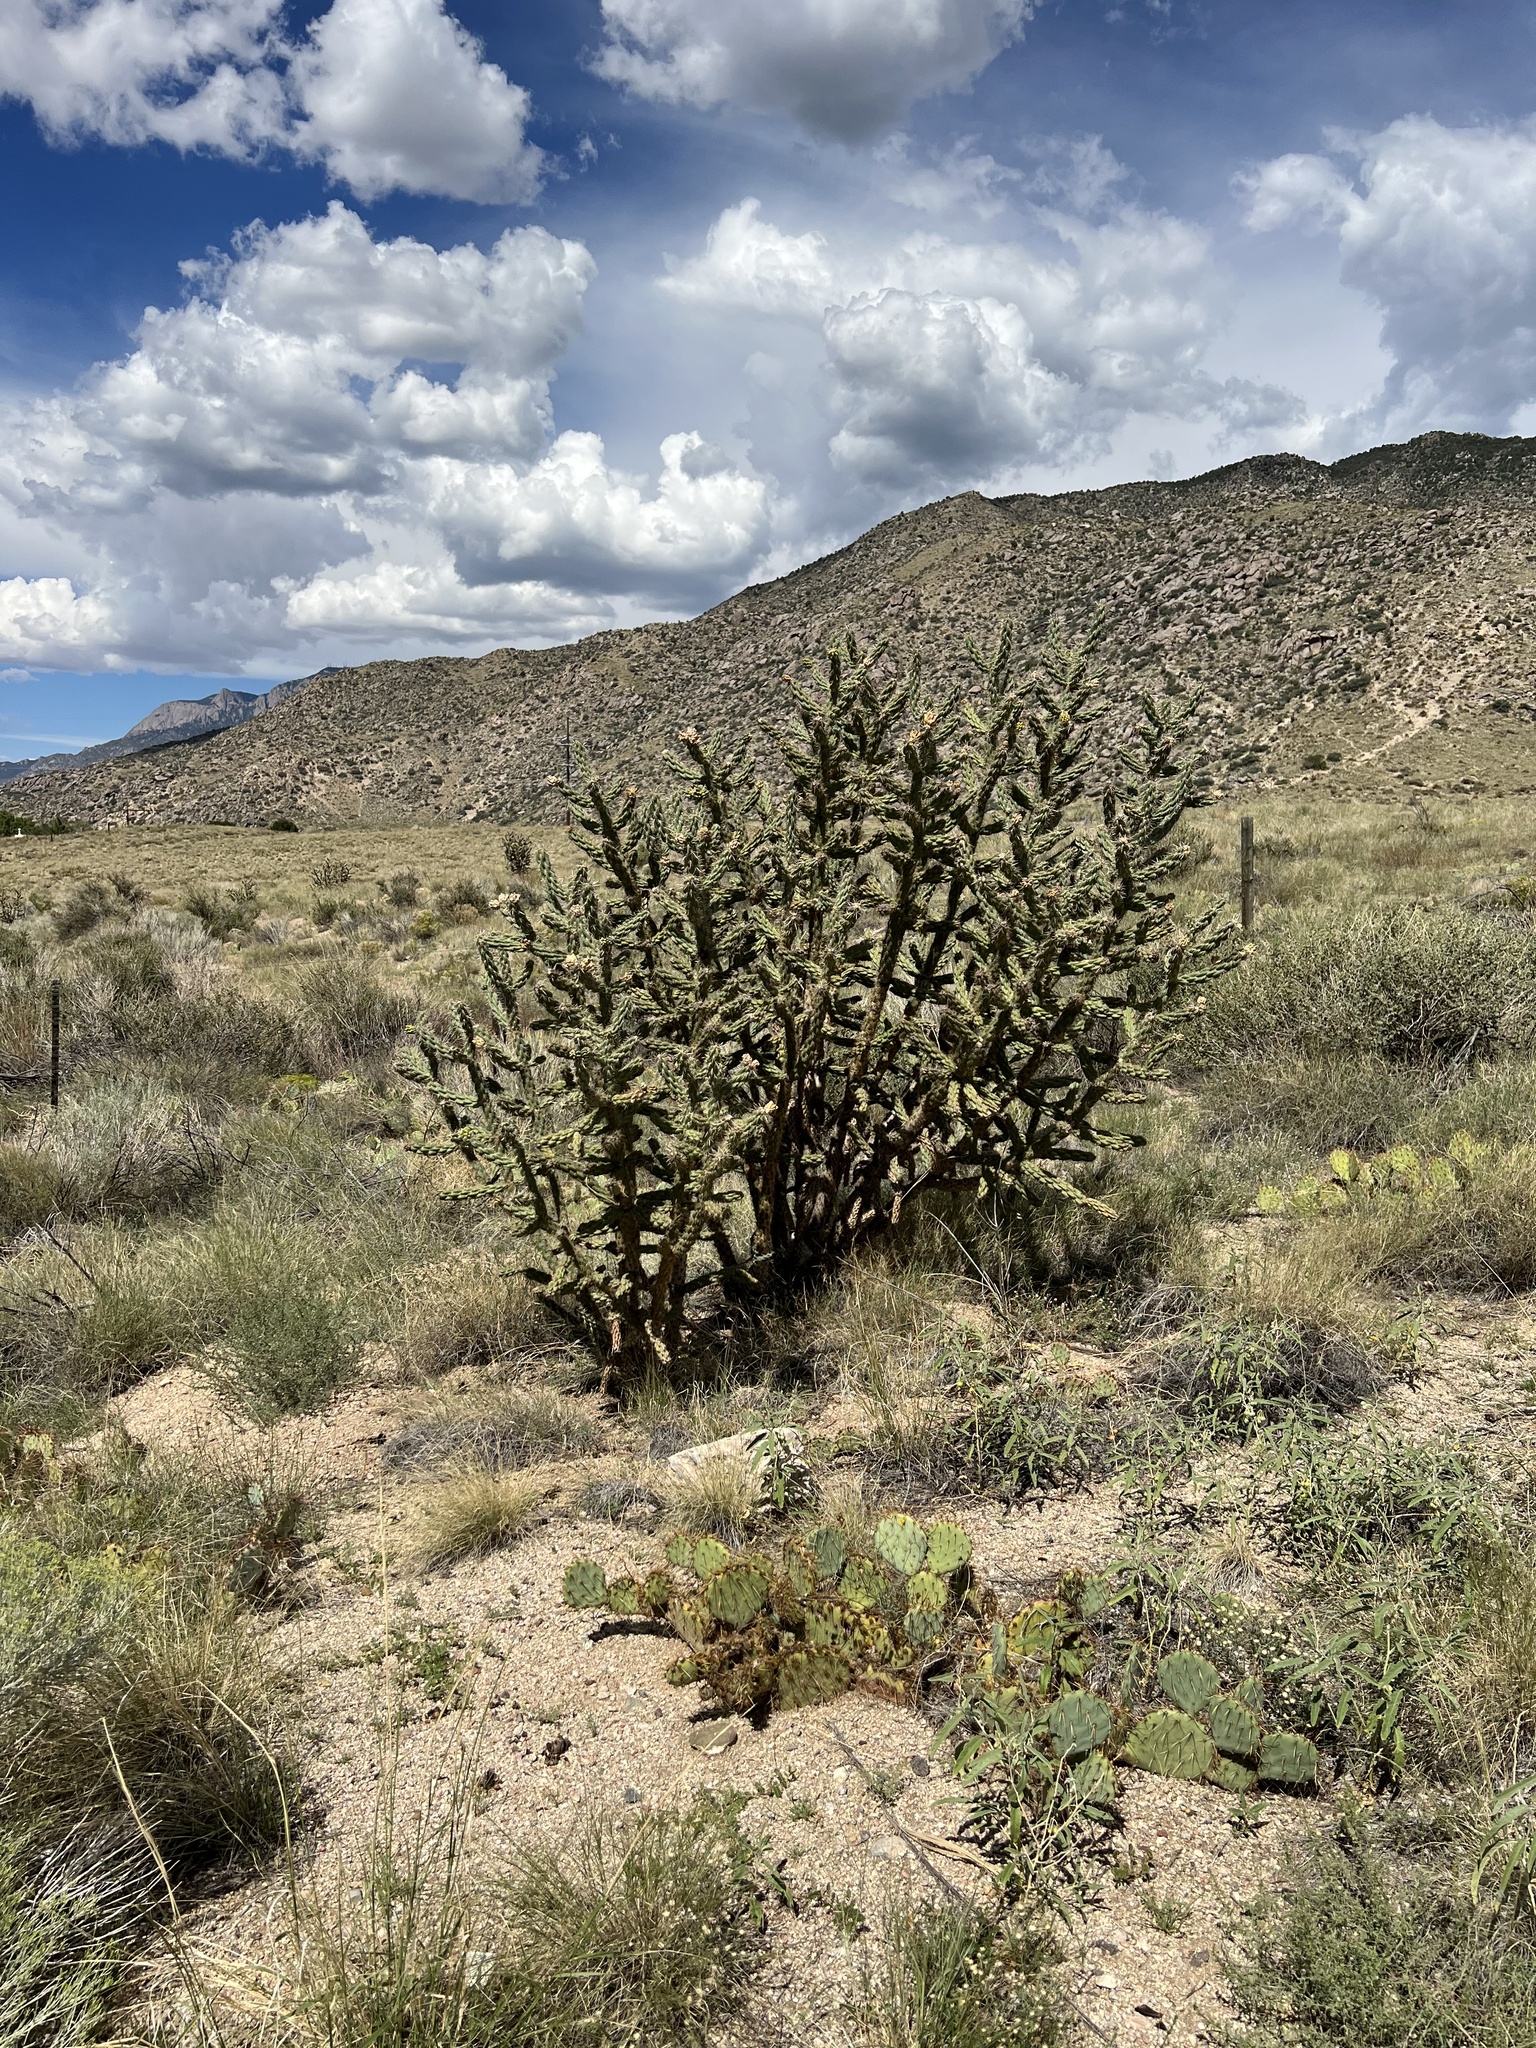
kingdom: Plantae
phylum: Tracheophyta
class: Magnoliopsida
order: Caryophyllales
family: Cactaceae
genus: Cylindropuntia
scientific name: Cylindropuntia imbricata
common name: Candelabrum cactus
